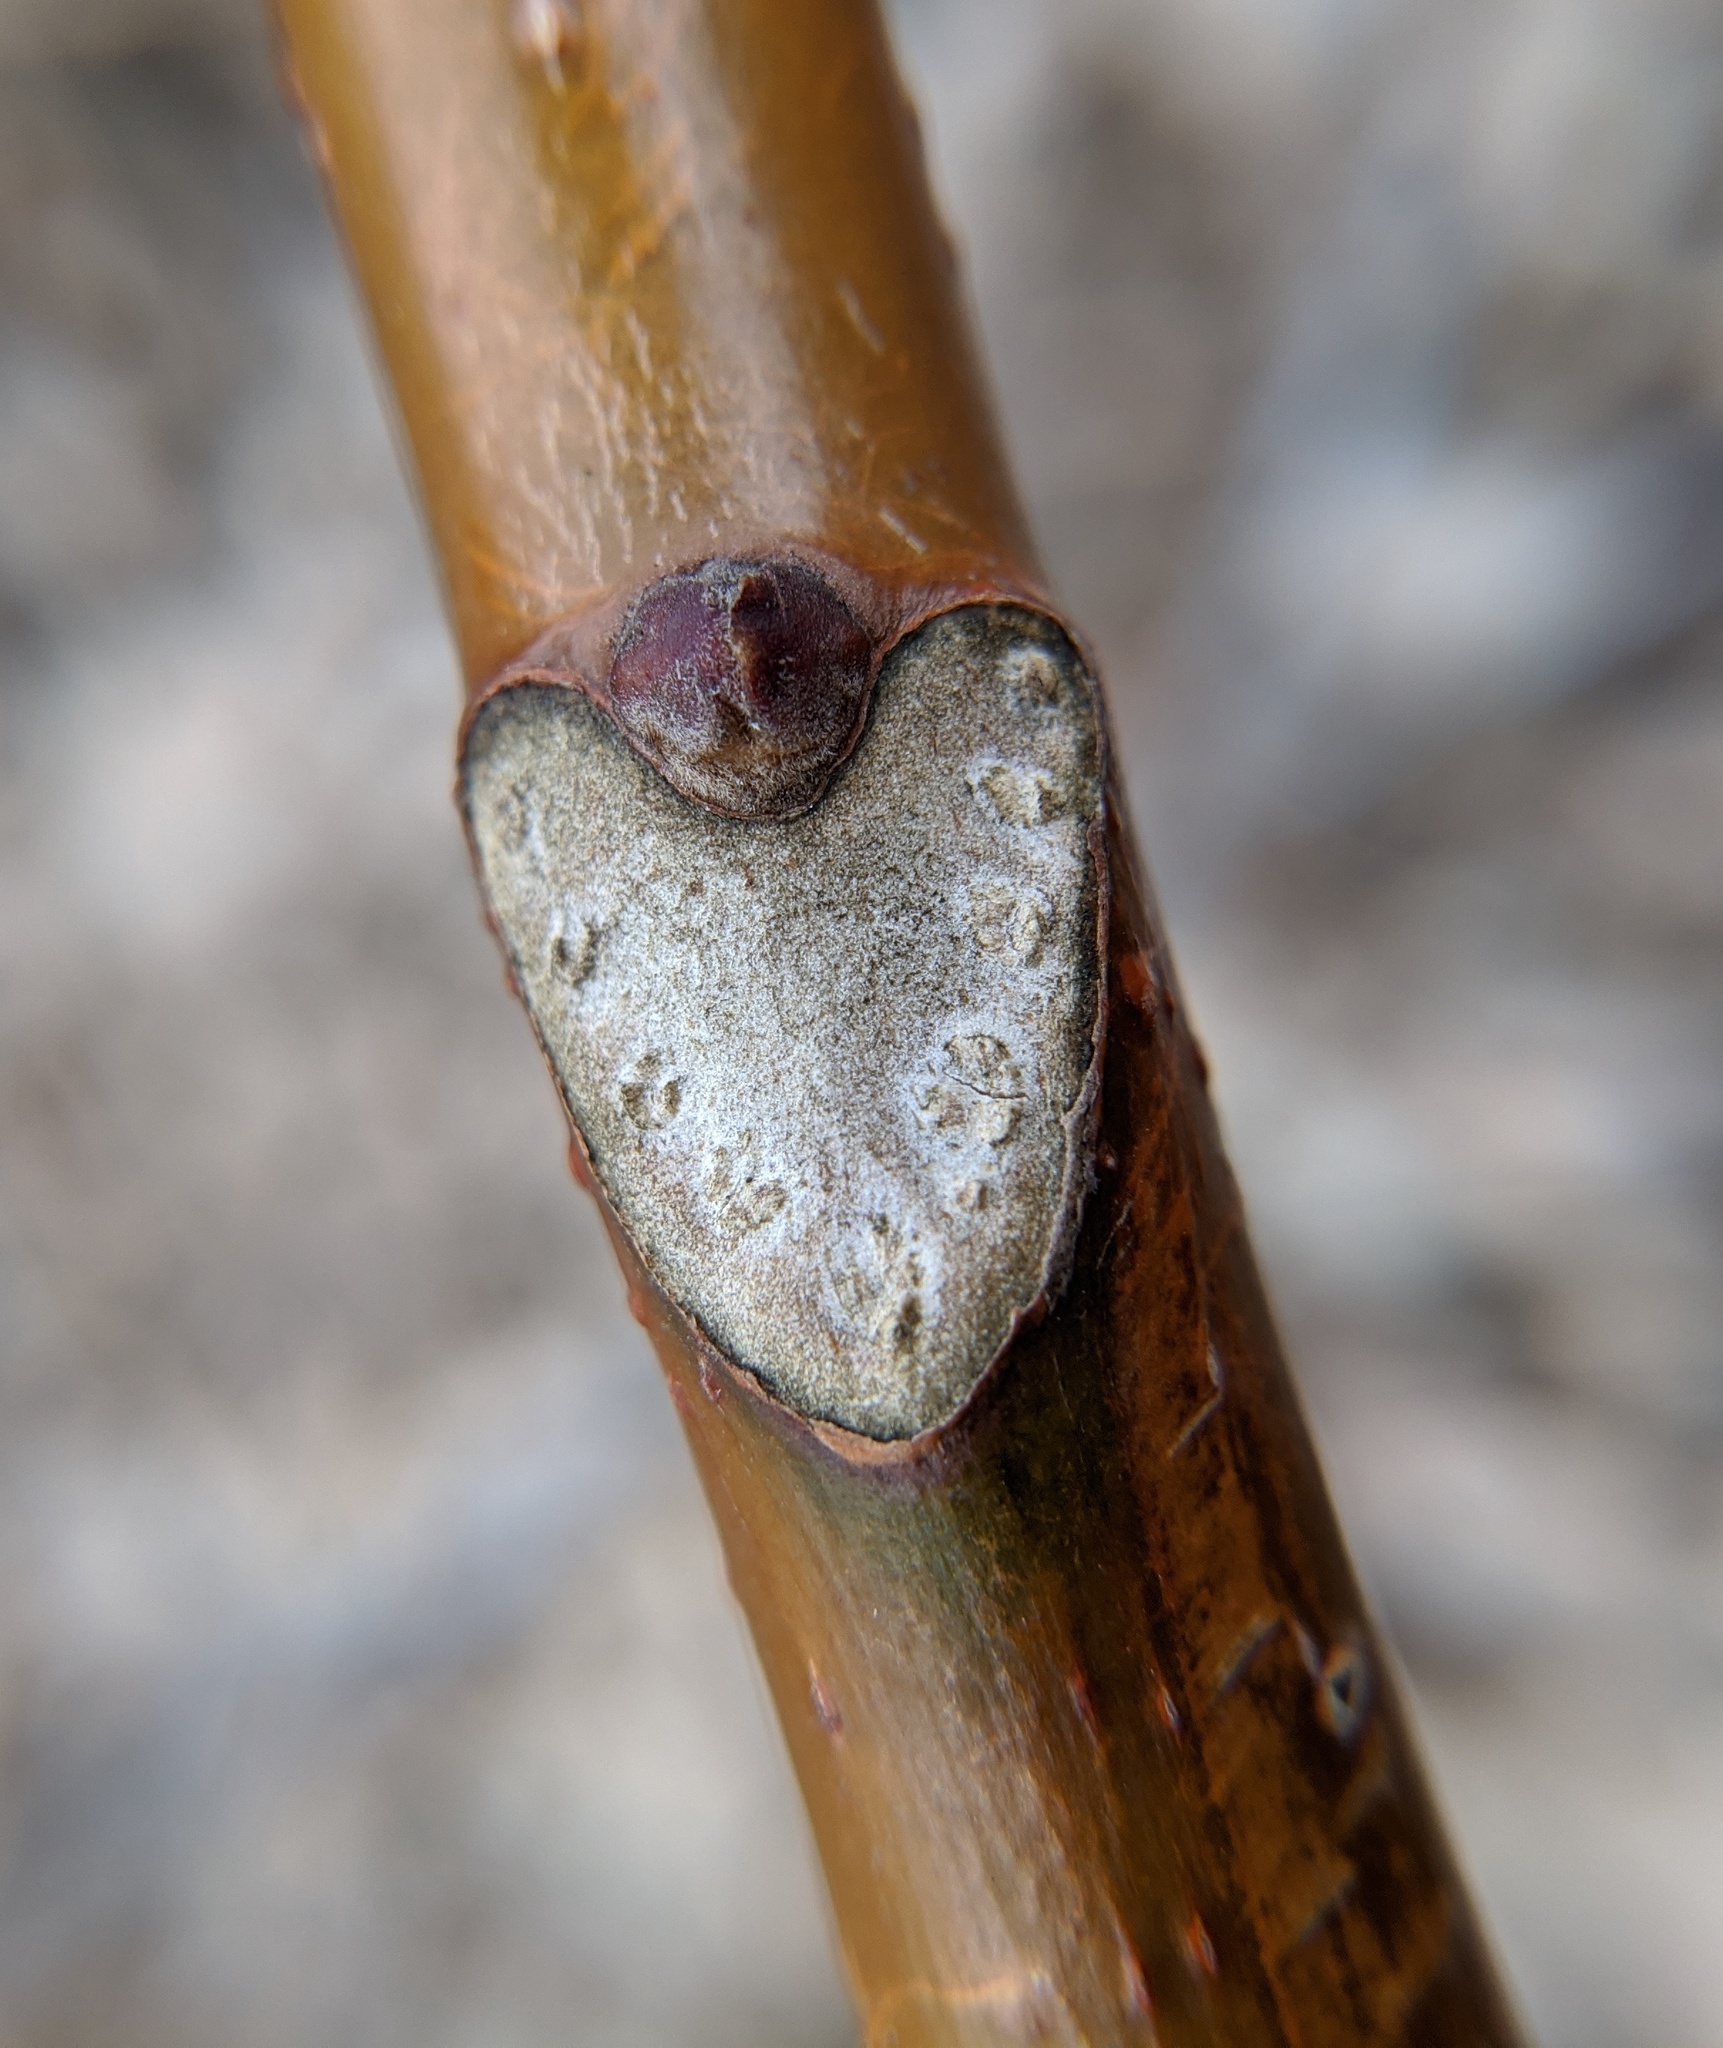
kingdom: Plantae
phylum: Tracheophyta
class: Magnoliopsida
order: Sapindales
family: Simaroubaceae
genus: Ailanthus
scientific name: Ailanthus altissima
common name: Tree-of-heaven
